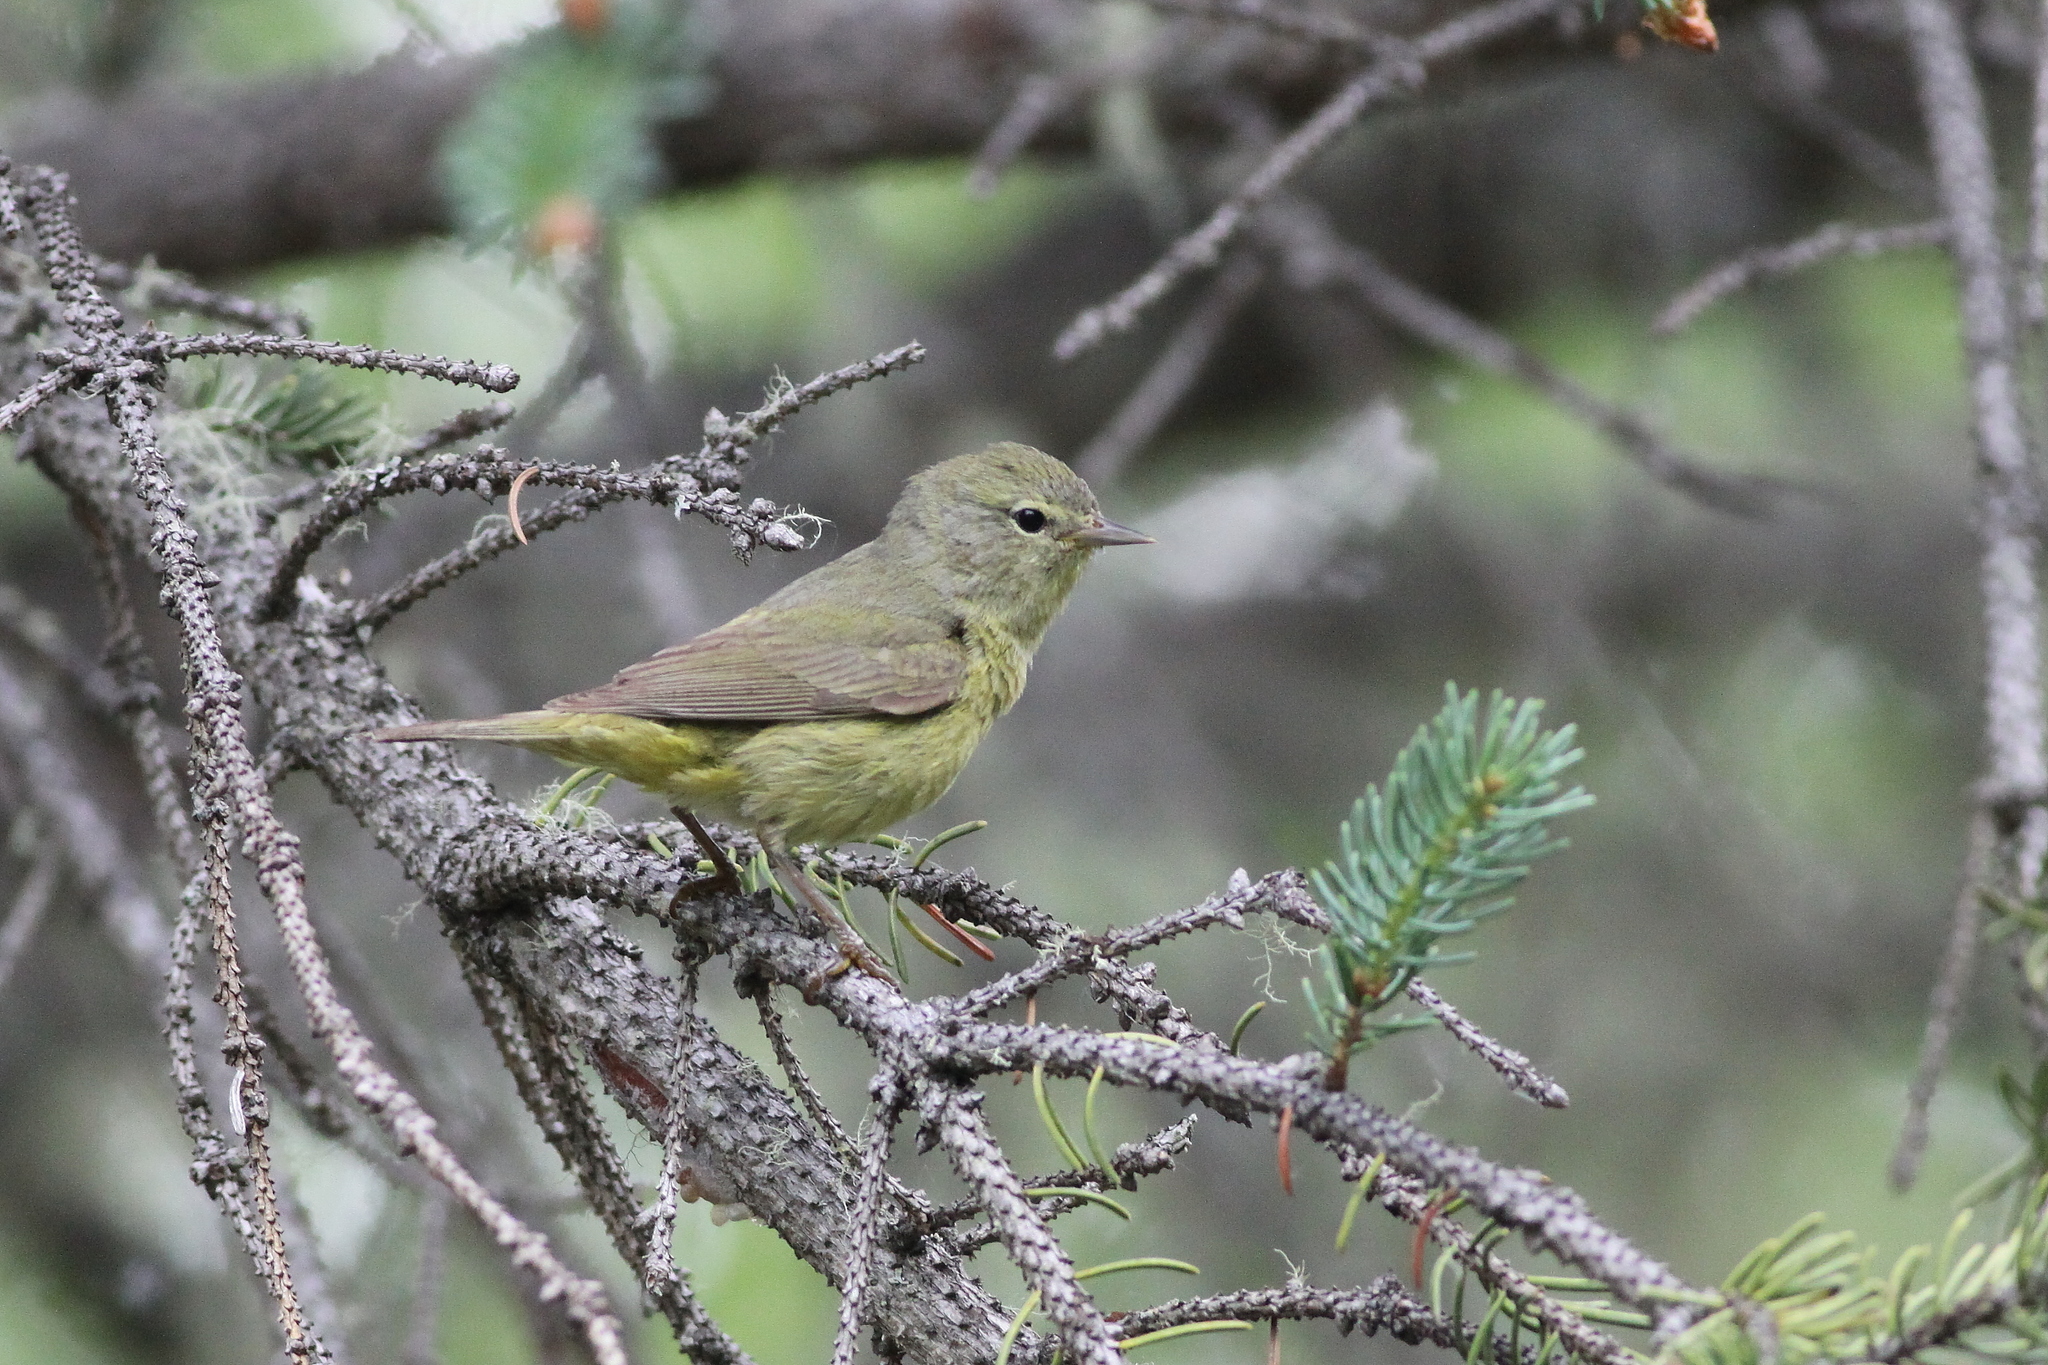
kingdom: Animalia
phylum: Chordata
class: Aves
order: Passeriformes
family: Parulidae
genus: Leiothlypis
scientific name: Leiothlypis celata
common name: Orange-crowned warbler
